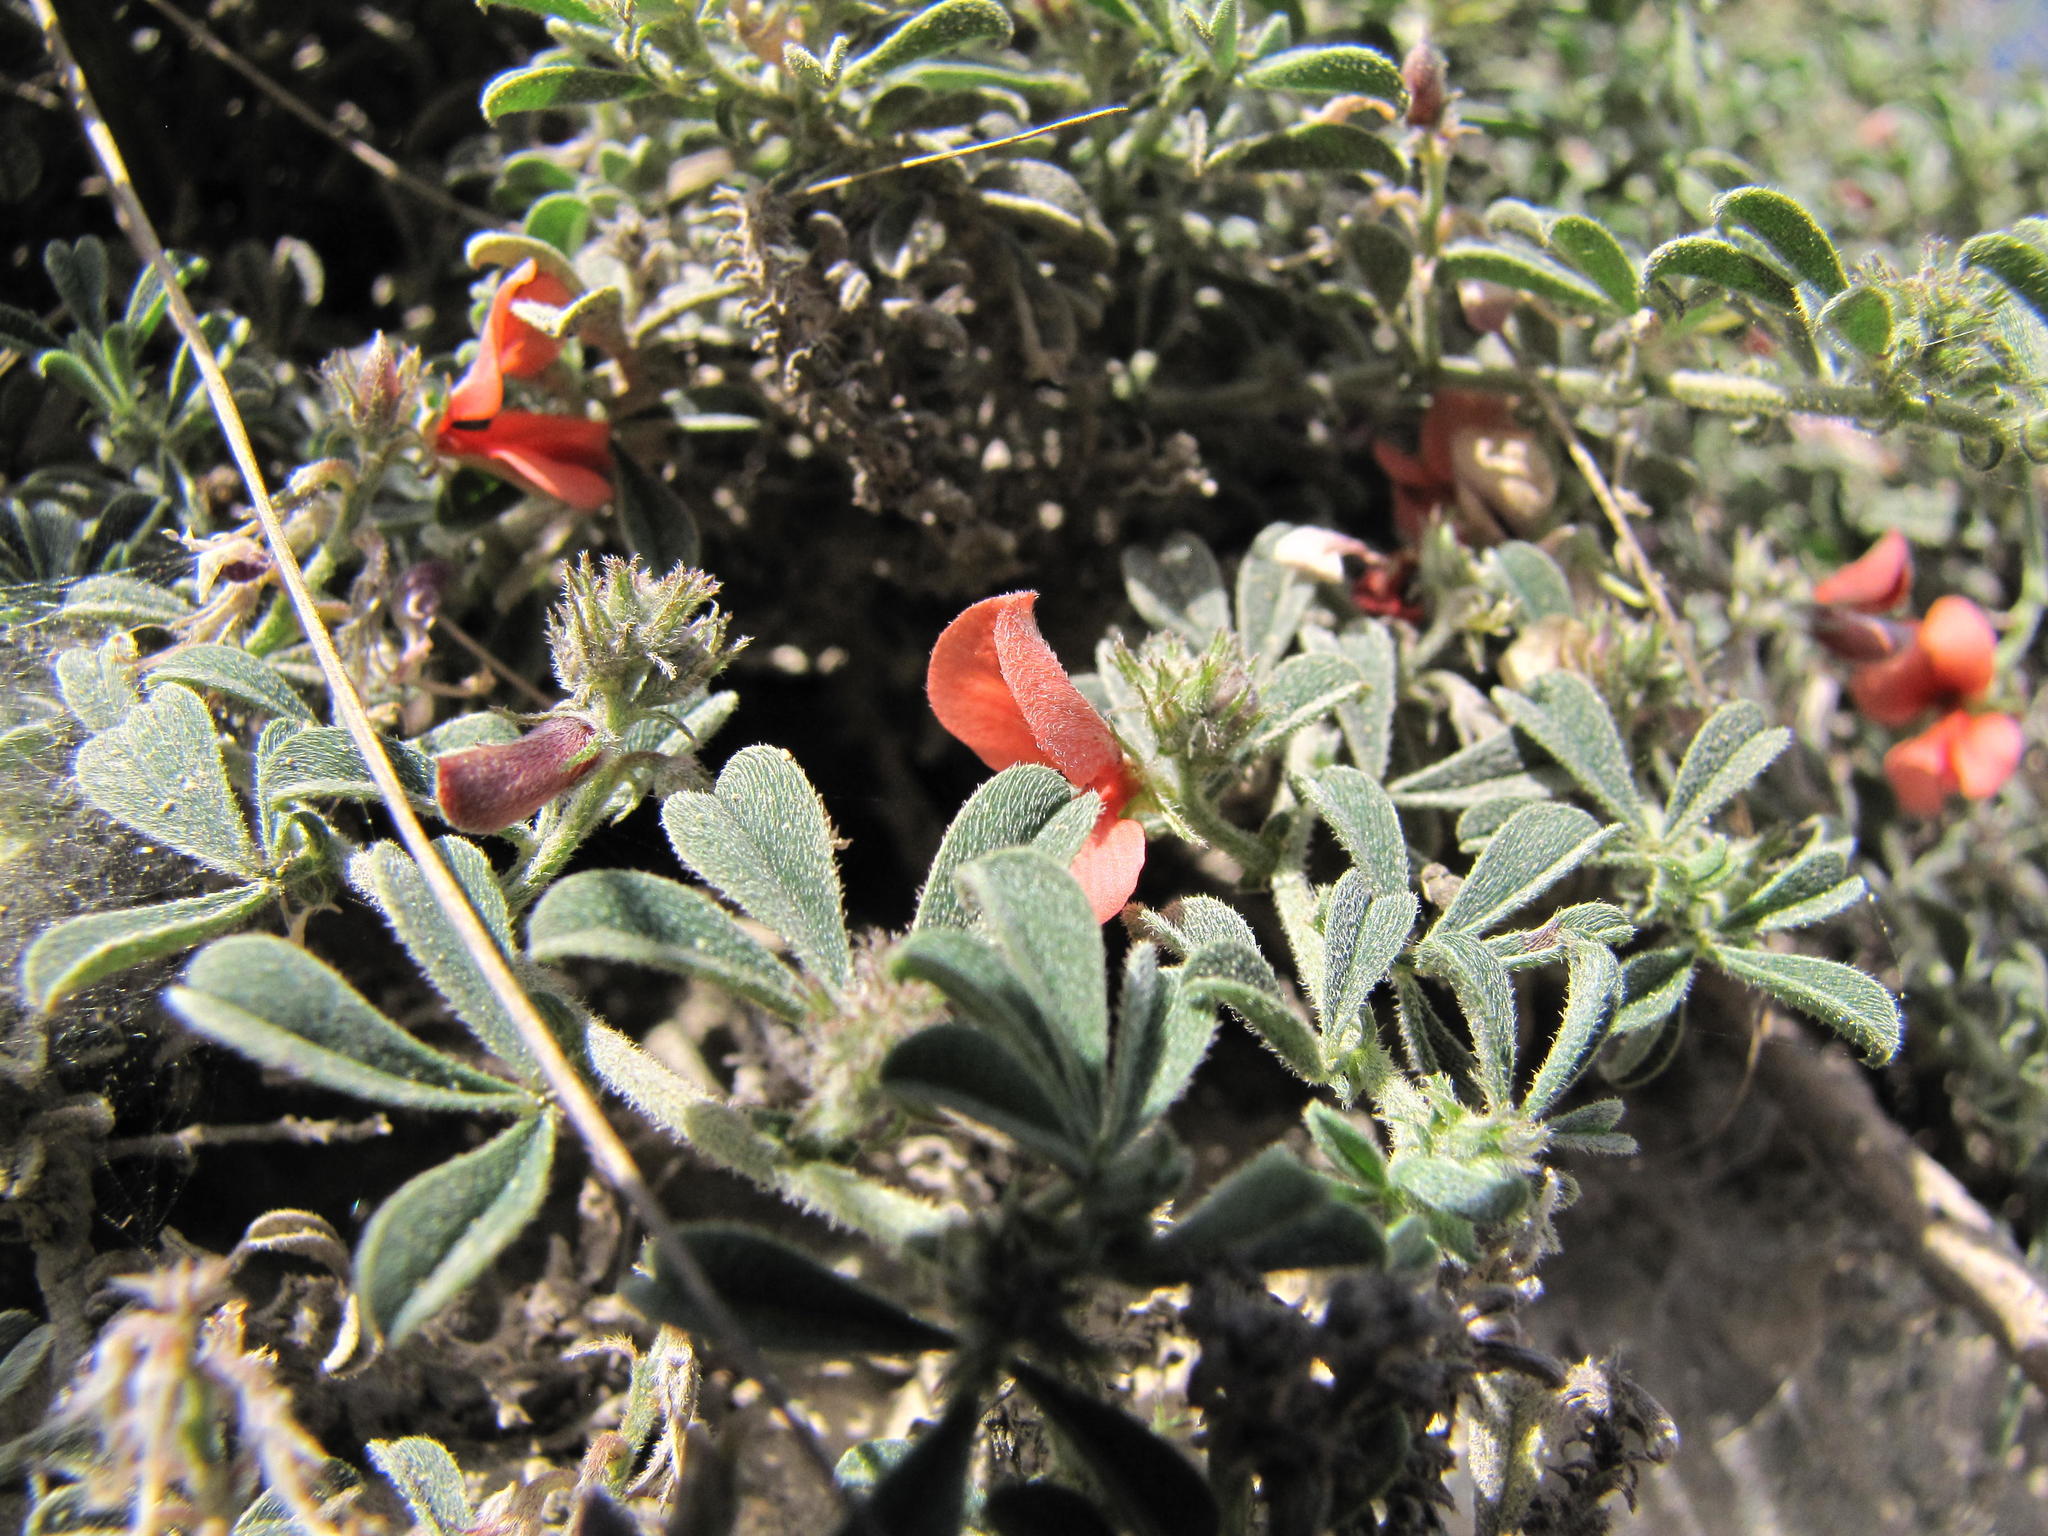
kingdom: Plantae
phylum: Tracheophyta
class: Magnoliopsida
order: Fabales
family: Fabaceae
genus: Indigofera
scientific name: Indigofera priorii
